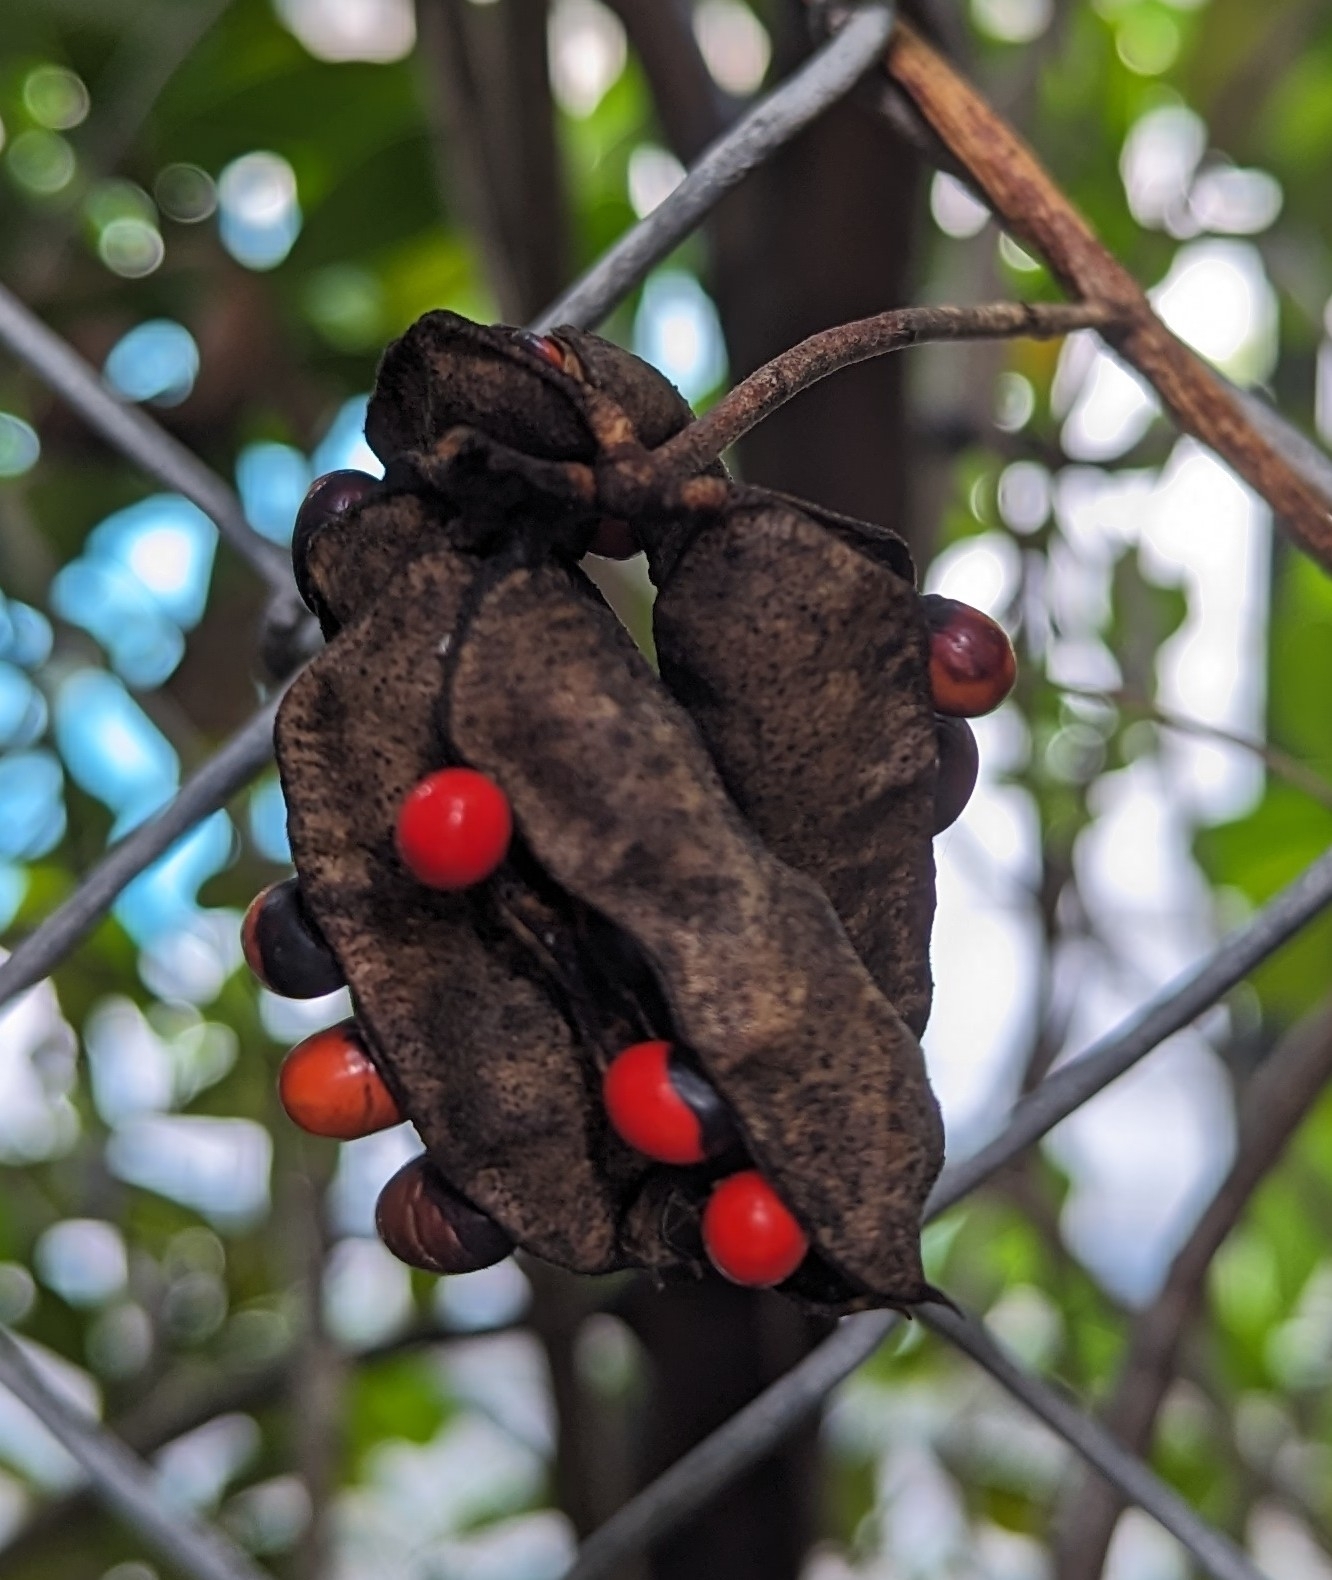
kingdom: Plantae
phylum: Tracheophyta
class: Magnoliopsida
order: Fabales
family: Fabaceae
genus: Abrus
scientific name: Abrus precatorius
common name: Rosarypea
